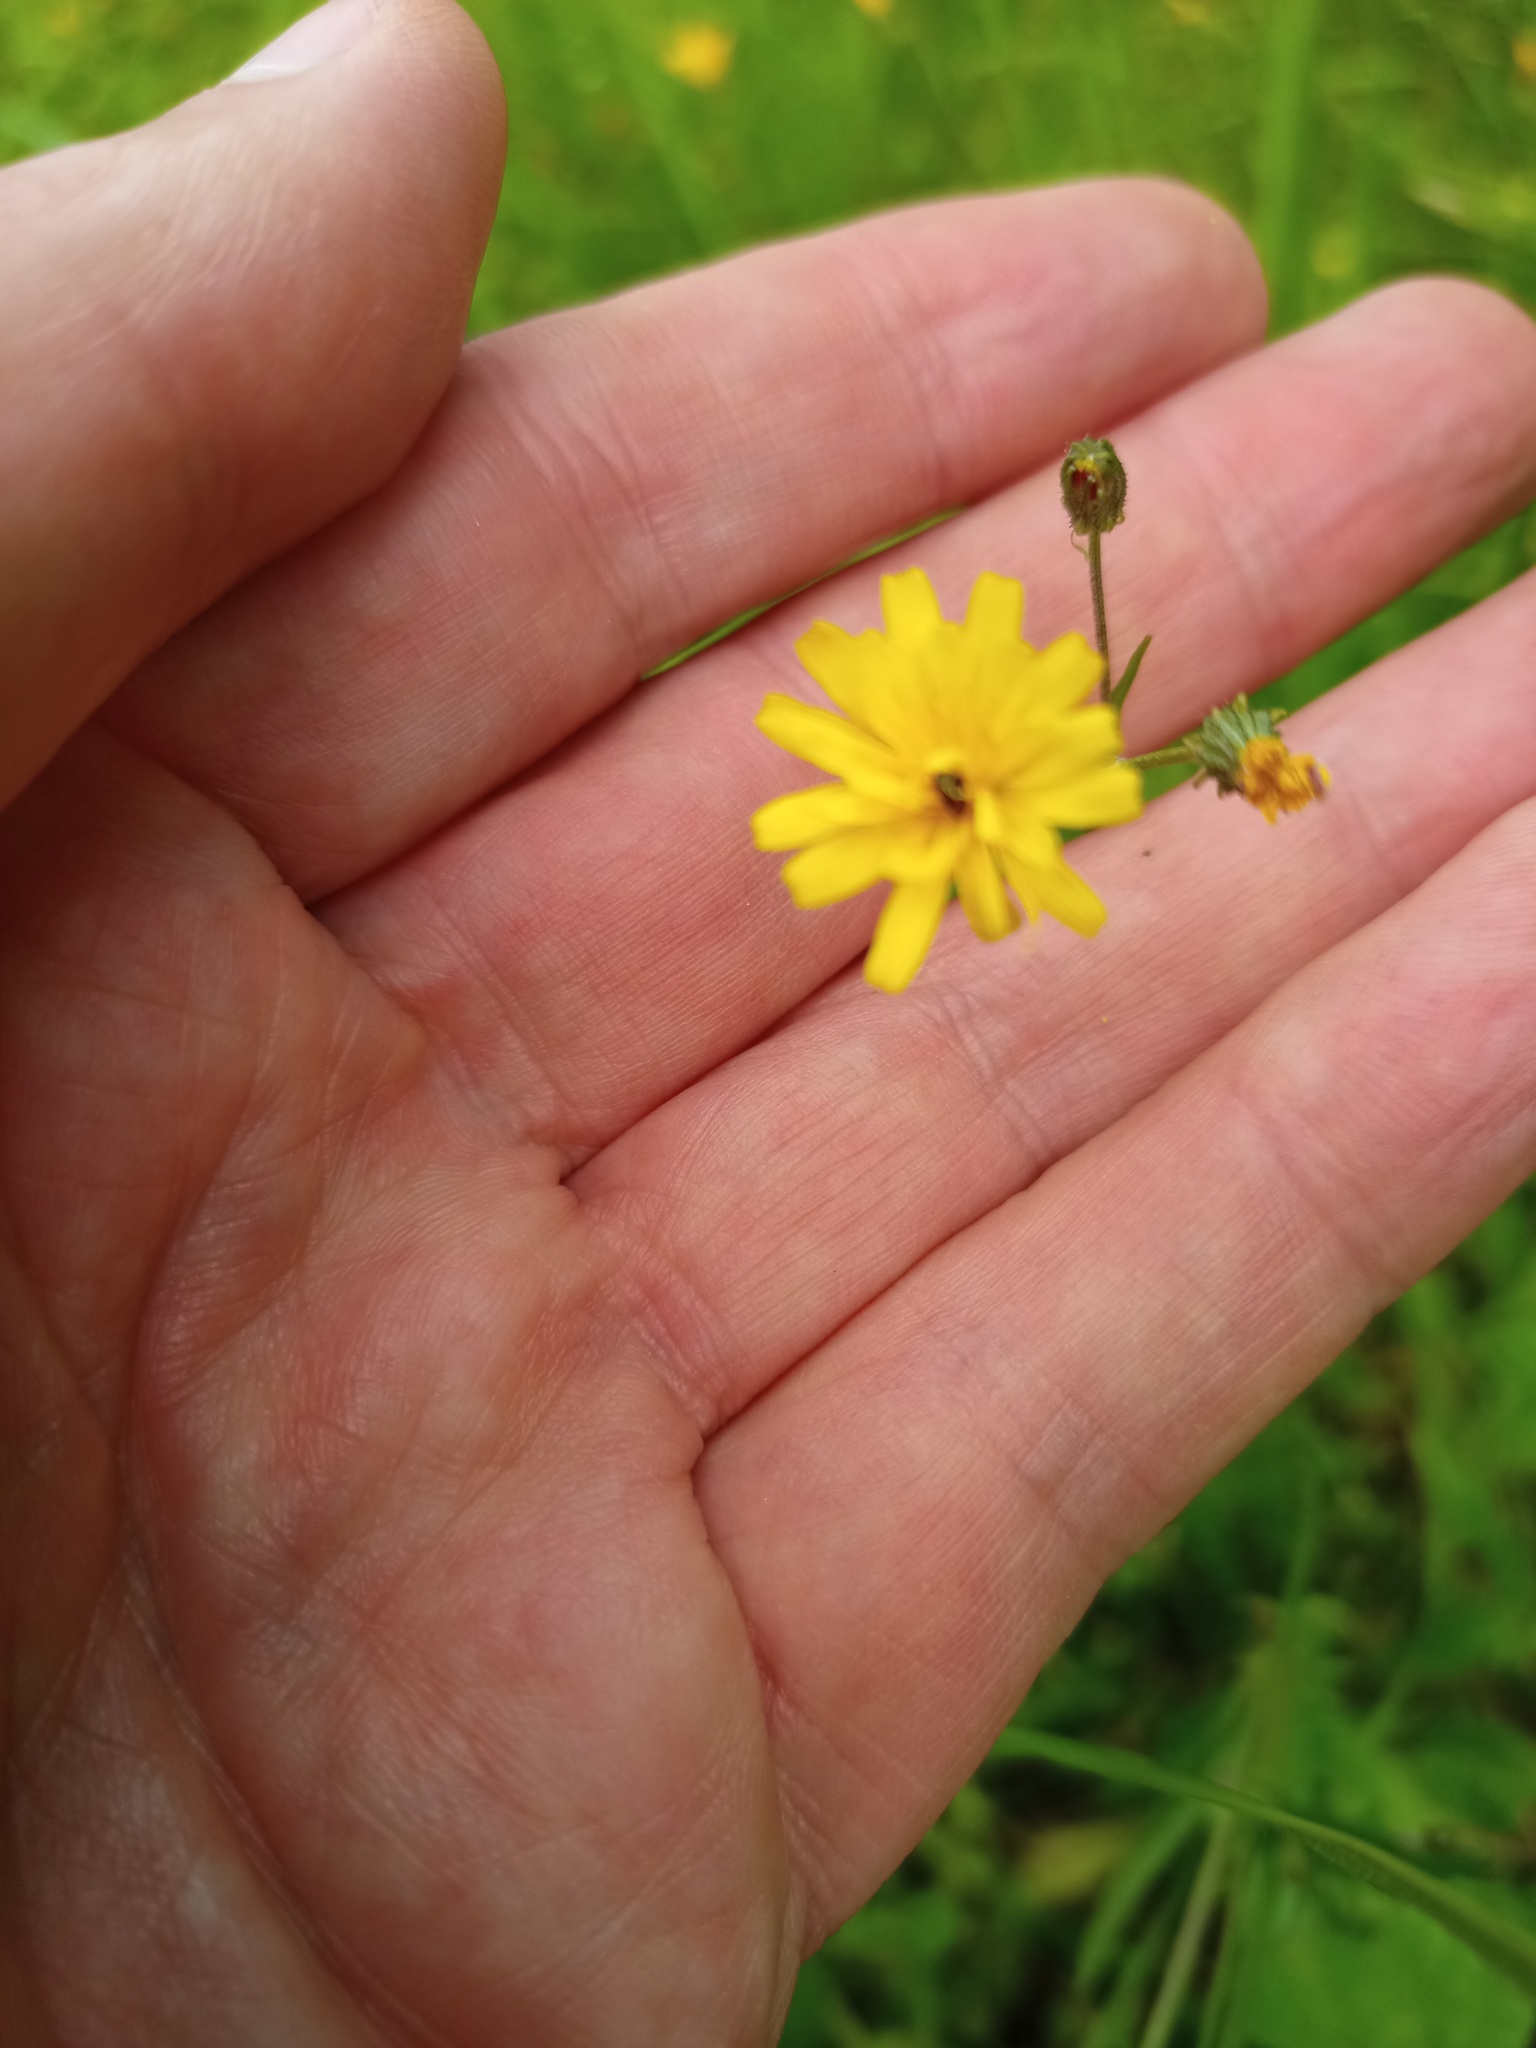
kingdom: Plantae
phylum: Tracheophyta
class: Magnoliopsida
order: Asterales
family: Asteraceae
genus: Lapsana
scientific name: Lapsana communis
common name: Nipplewort
